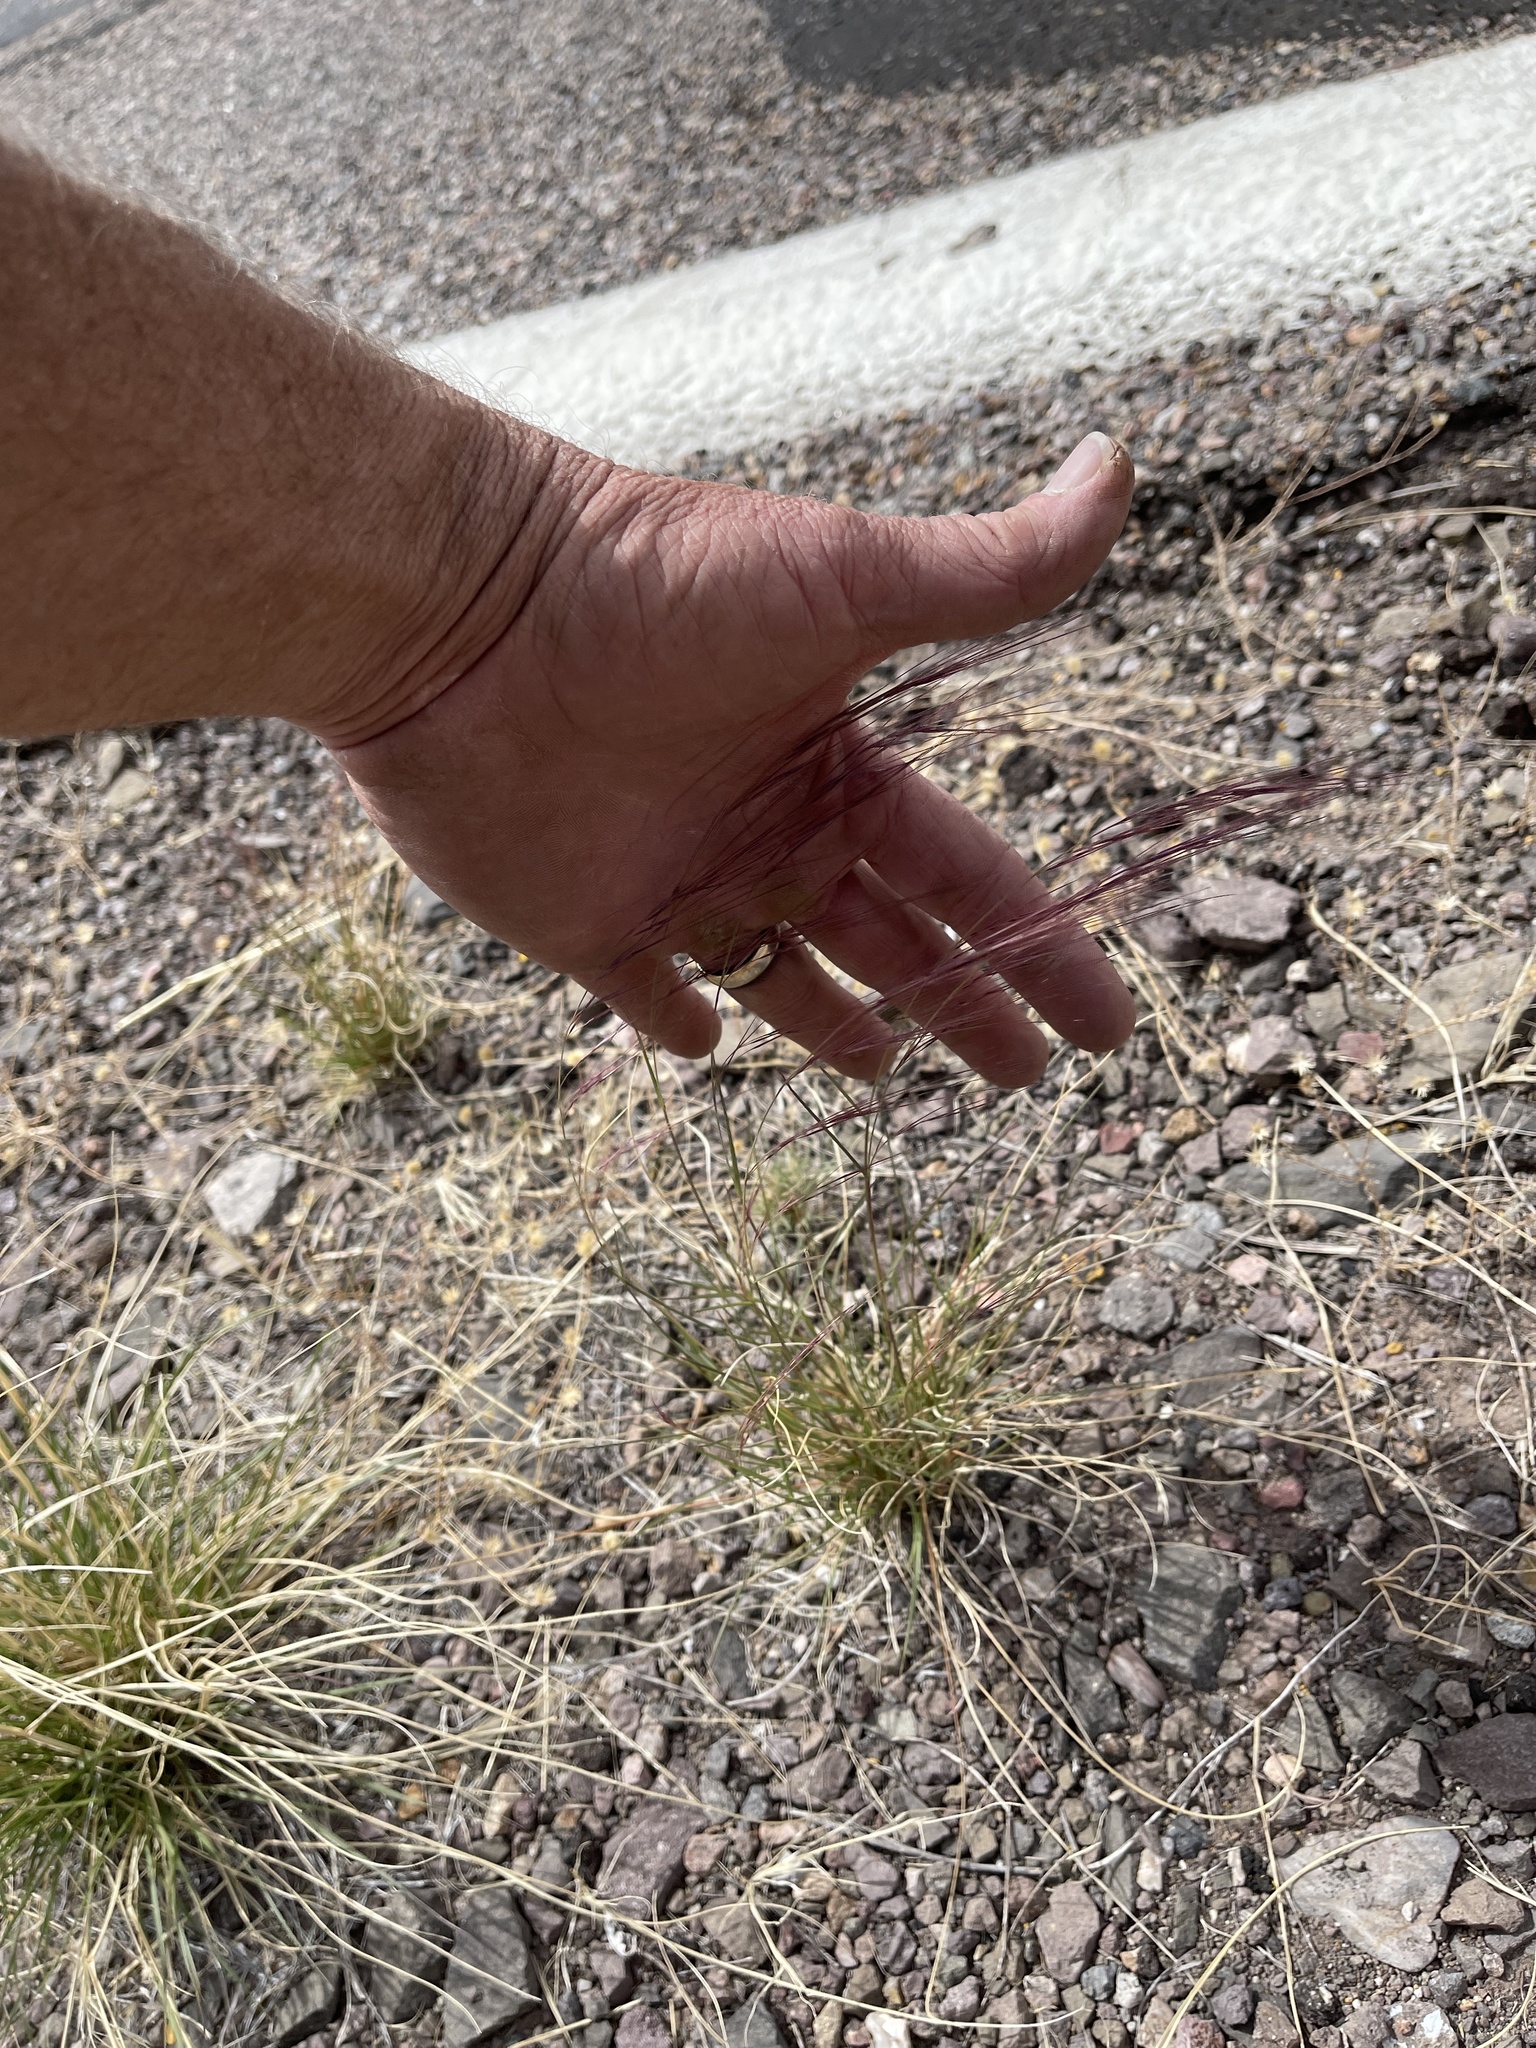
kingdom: Plantae
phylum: Tracheophyta
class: Liliopsida
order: Poales
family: Poaceae
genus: Aristida
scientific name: Aristida purpurea
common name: Purple threeawn
